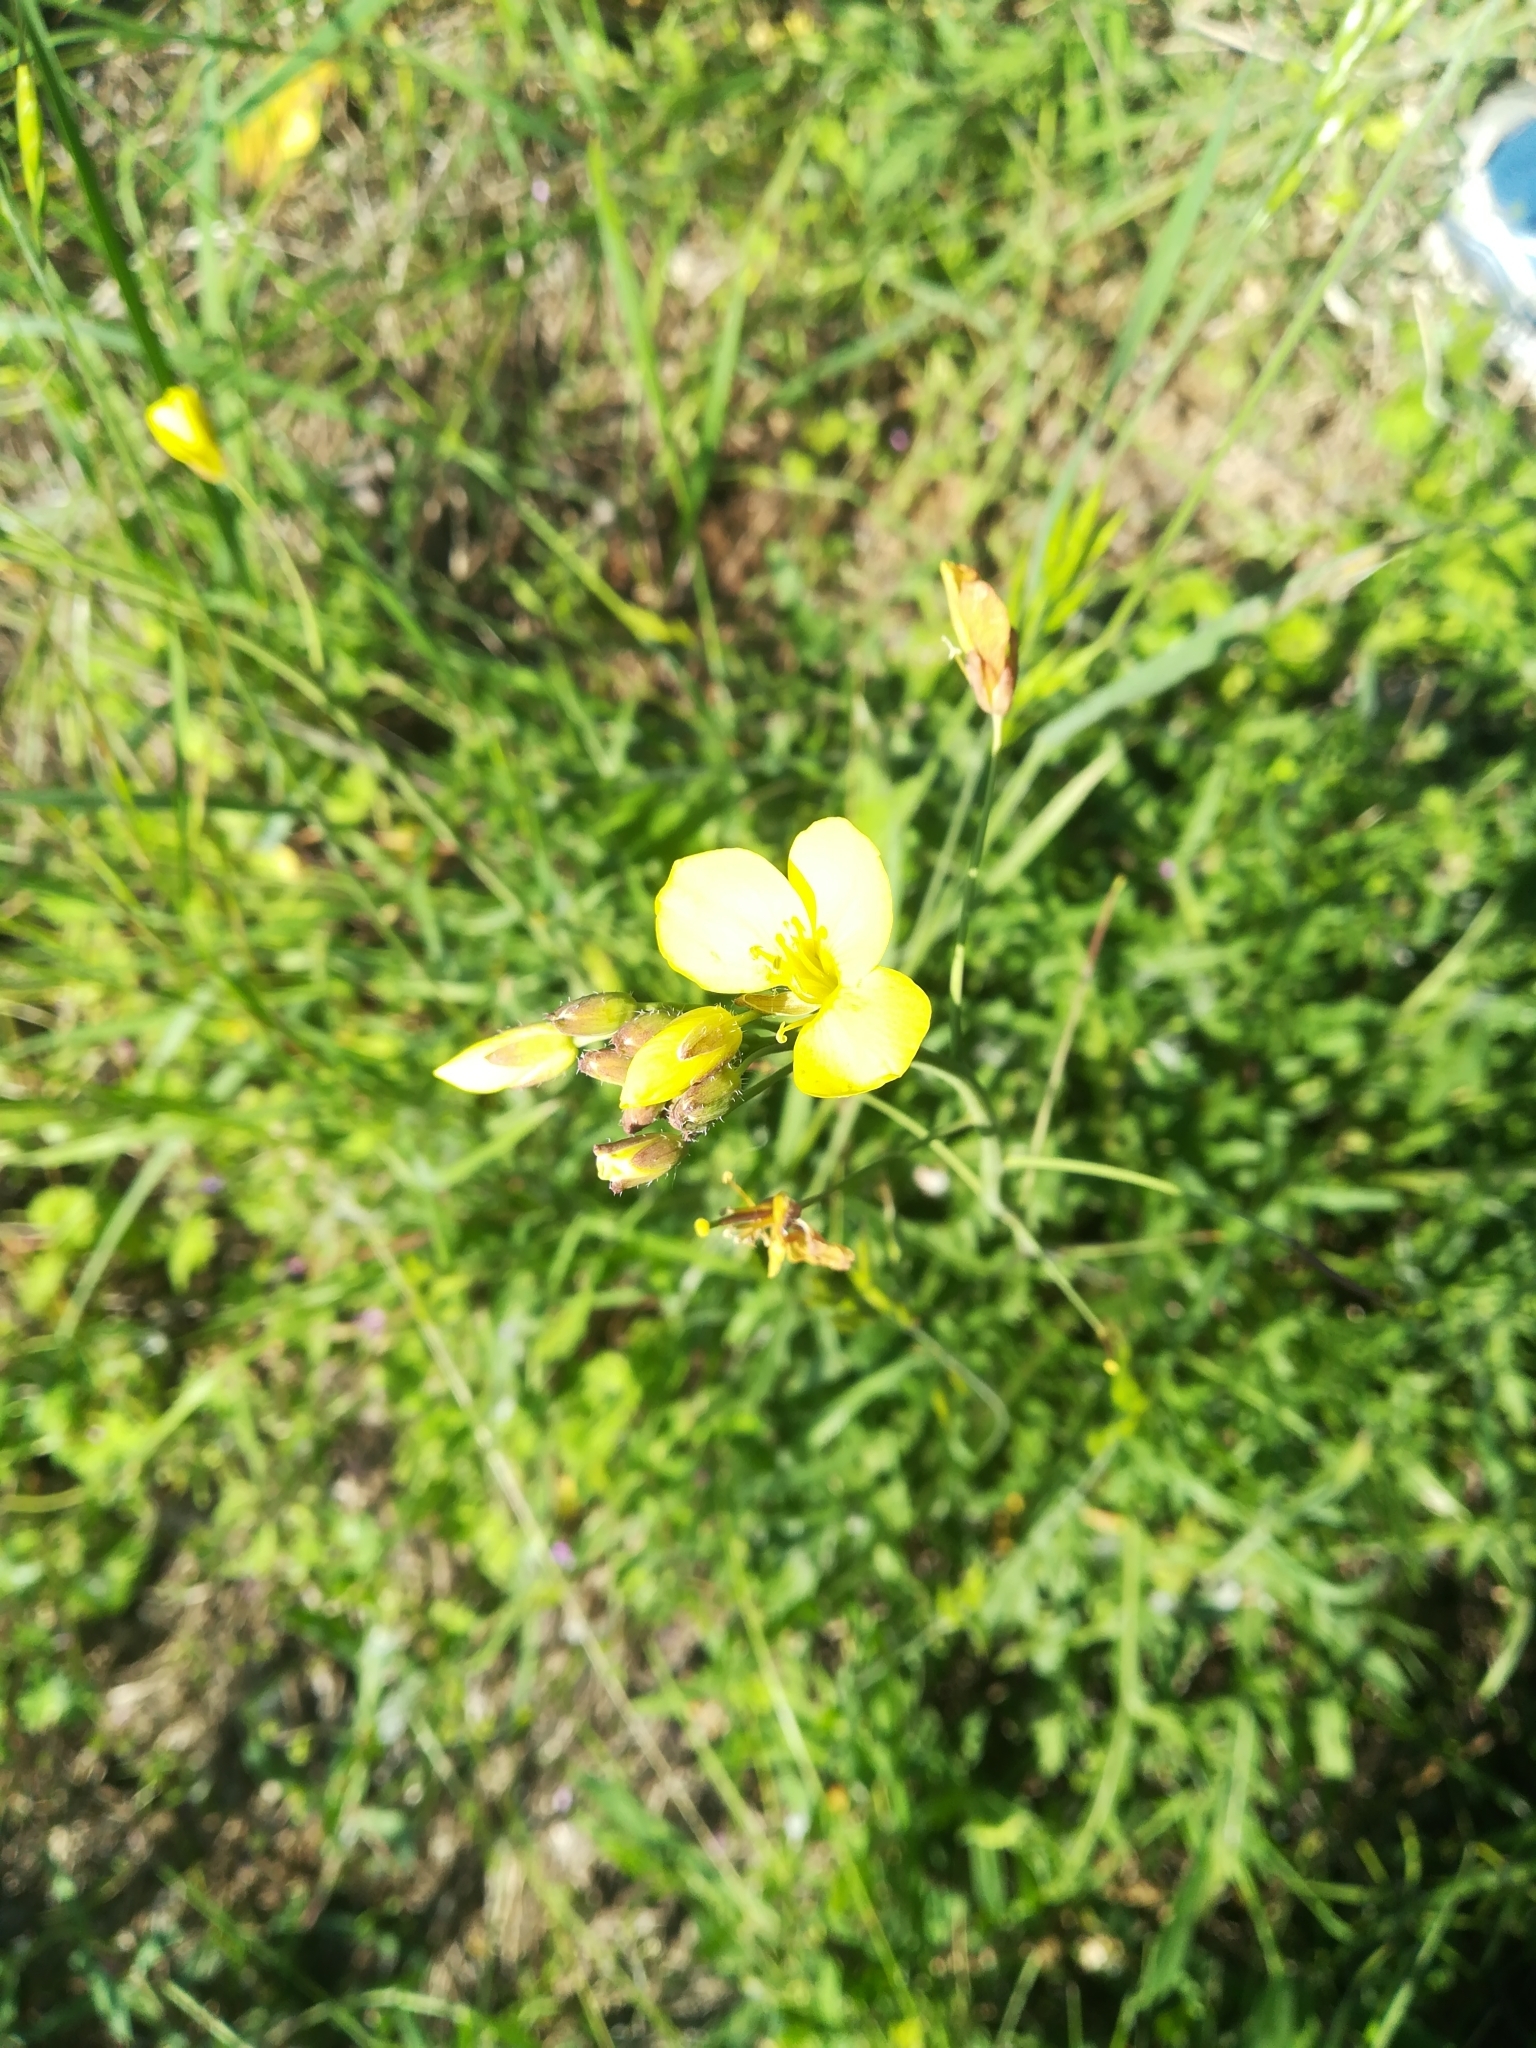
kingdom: Plantae
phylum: Tracheophyta
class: Magnoliopsida
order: Brassicales
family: Brassicaceae
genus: Diplotaxis
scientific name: Diplotaxis tenuifolia
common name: Perennial wall-rocket
